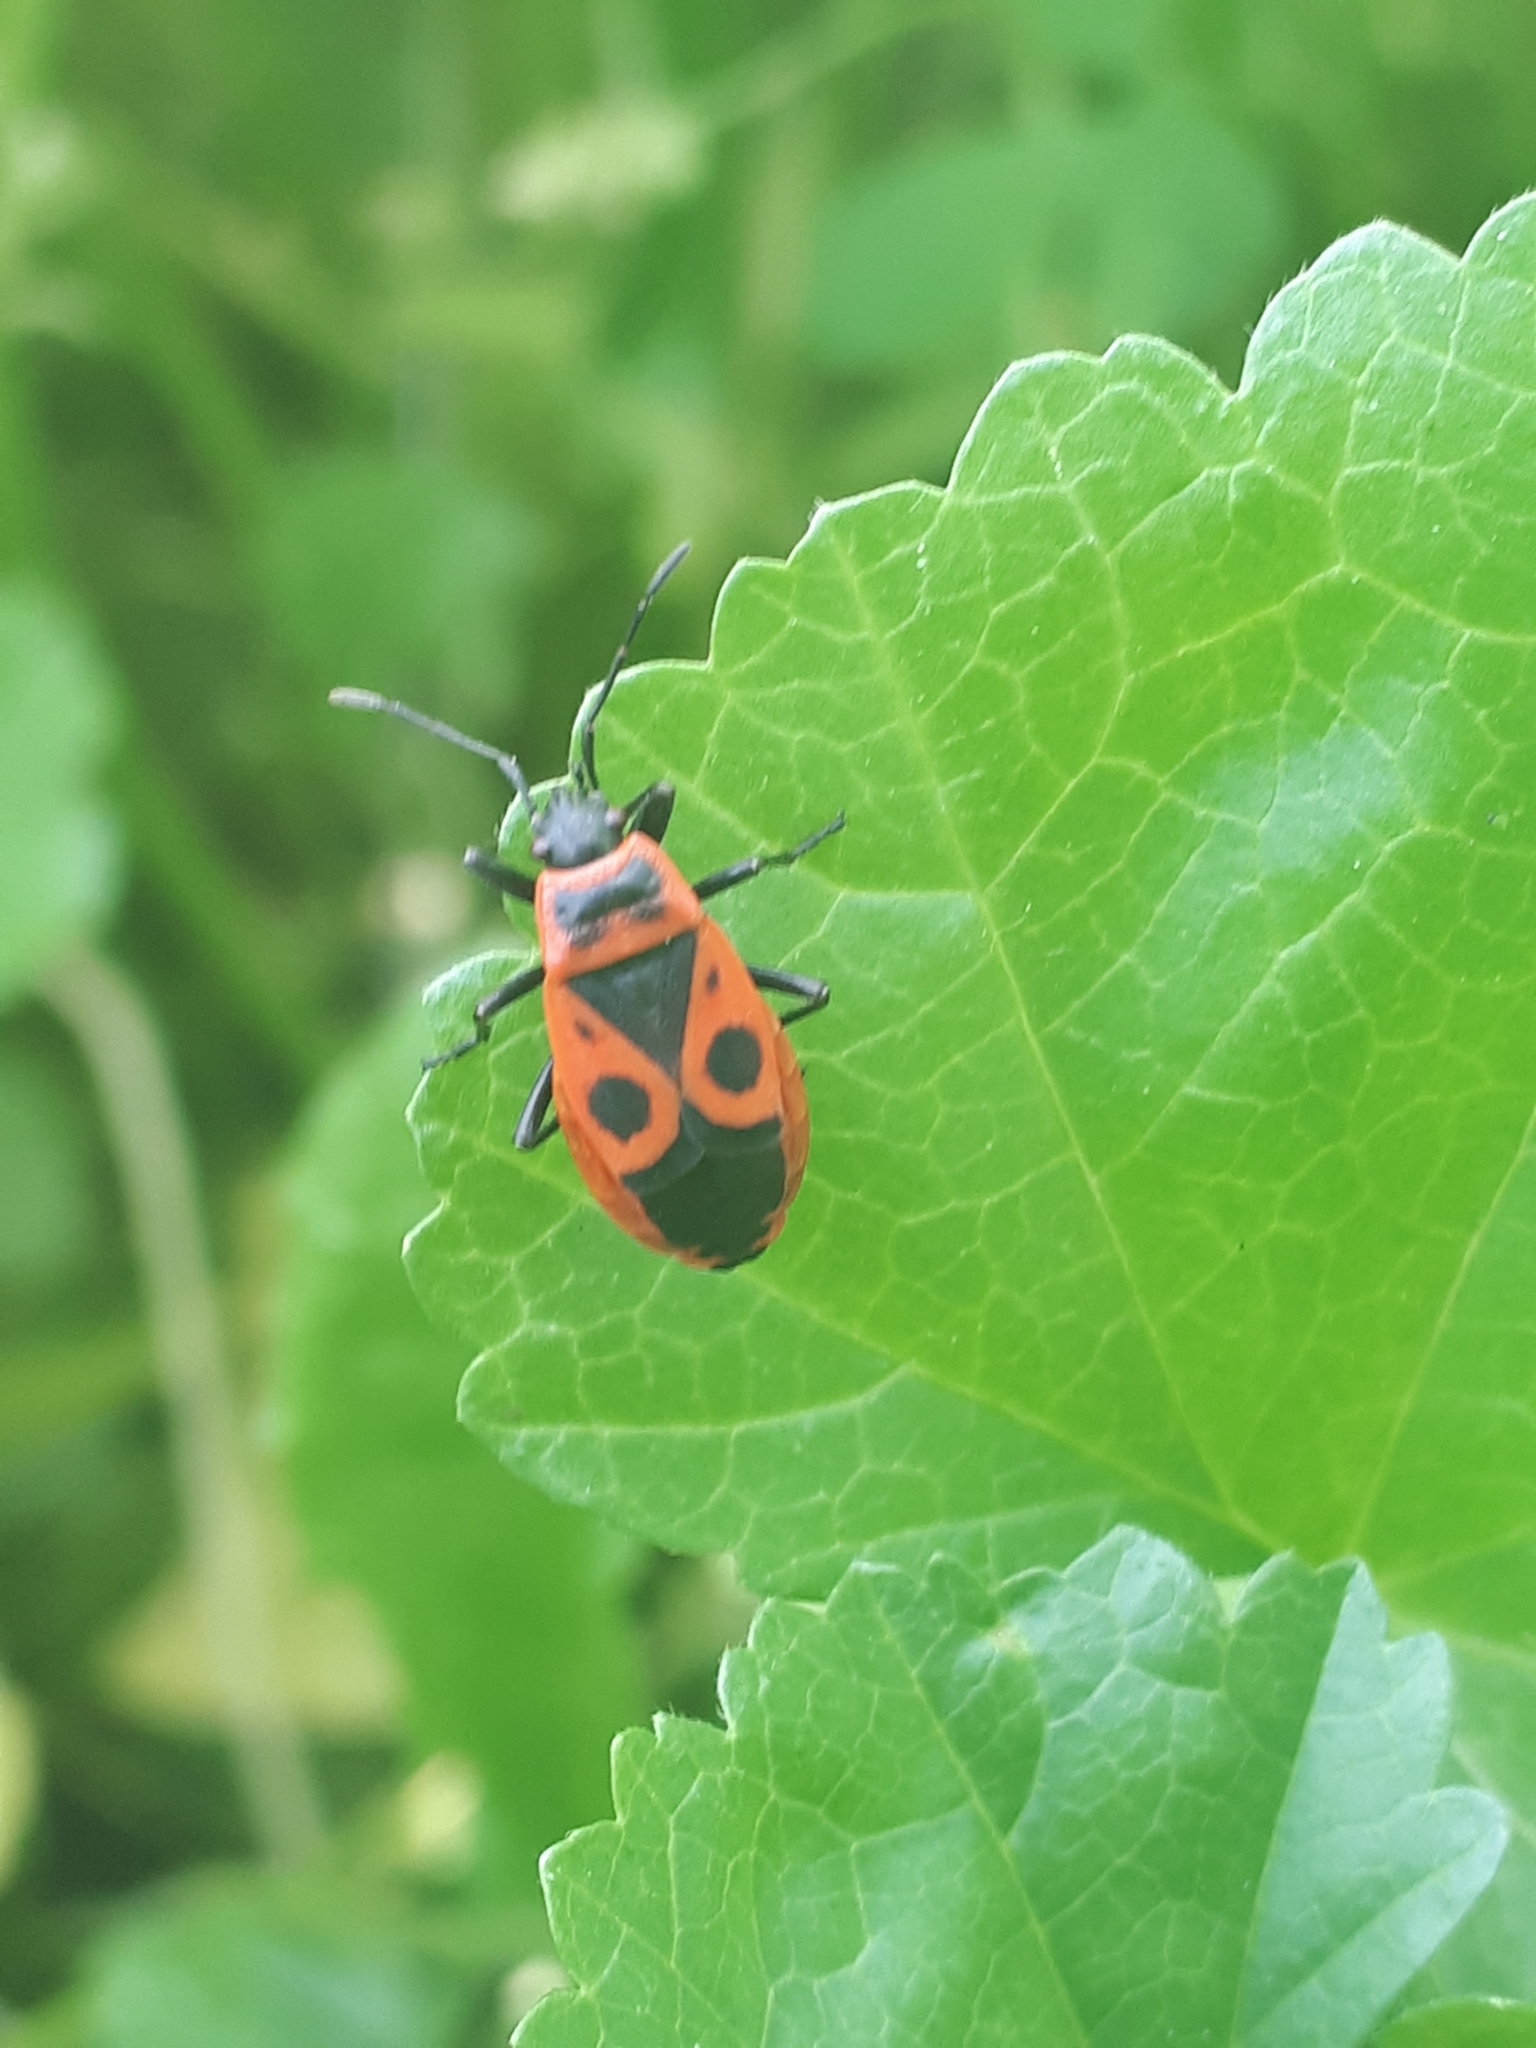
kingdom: Animalia
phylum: Arthropoda
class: Insecta
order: Hemiptera
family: Pyrrhocoridae
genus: Pyrrhocoris
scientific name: Pyrrhocoris apterus
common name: Firebug
